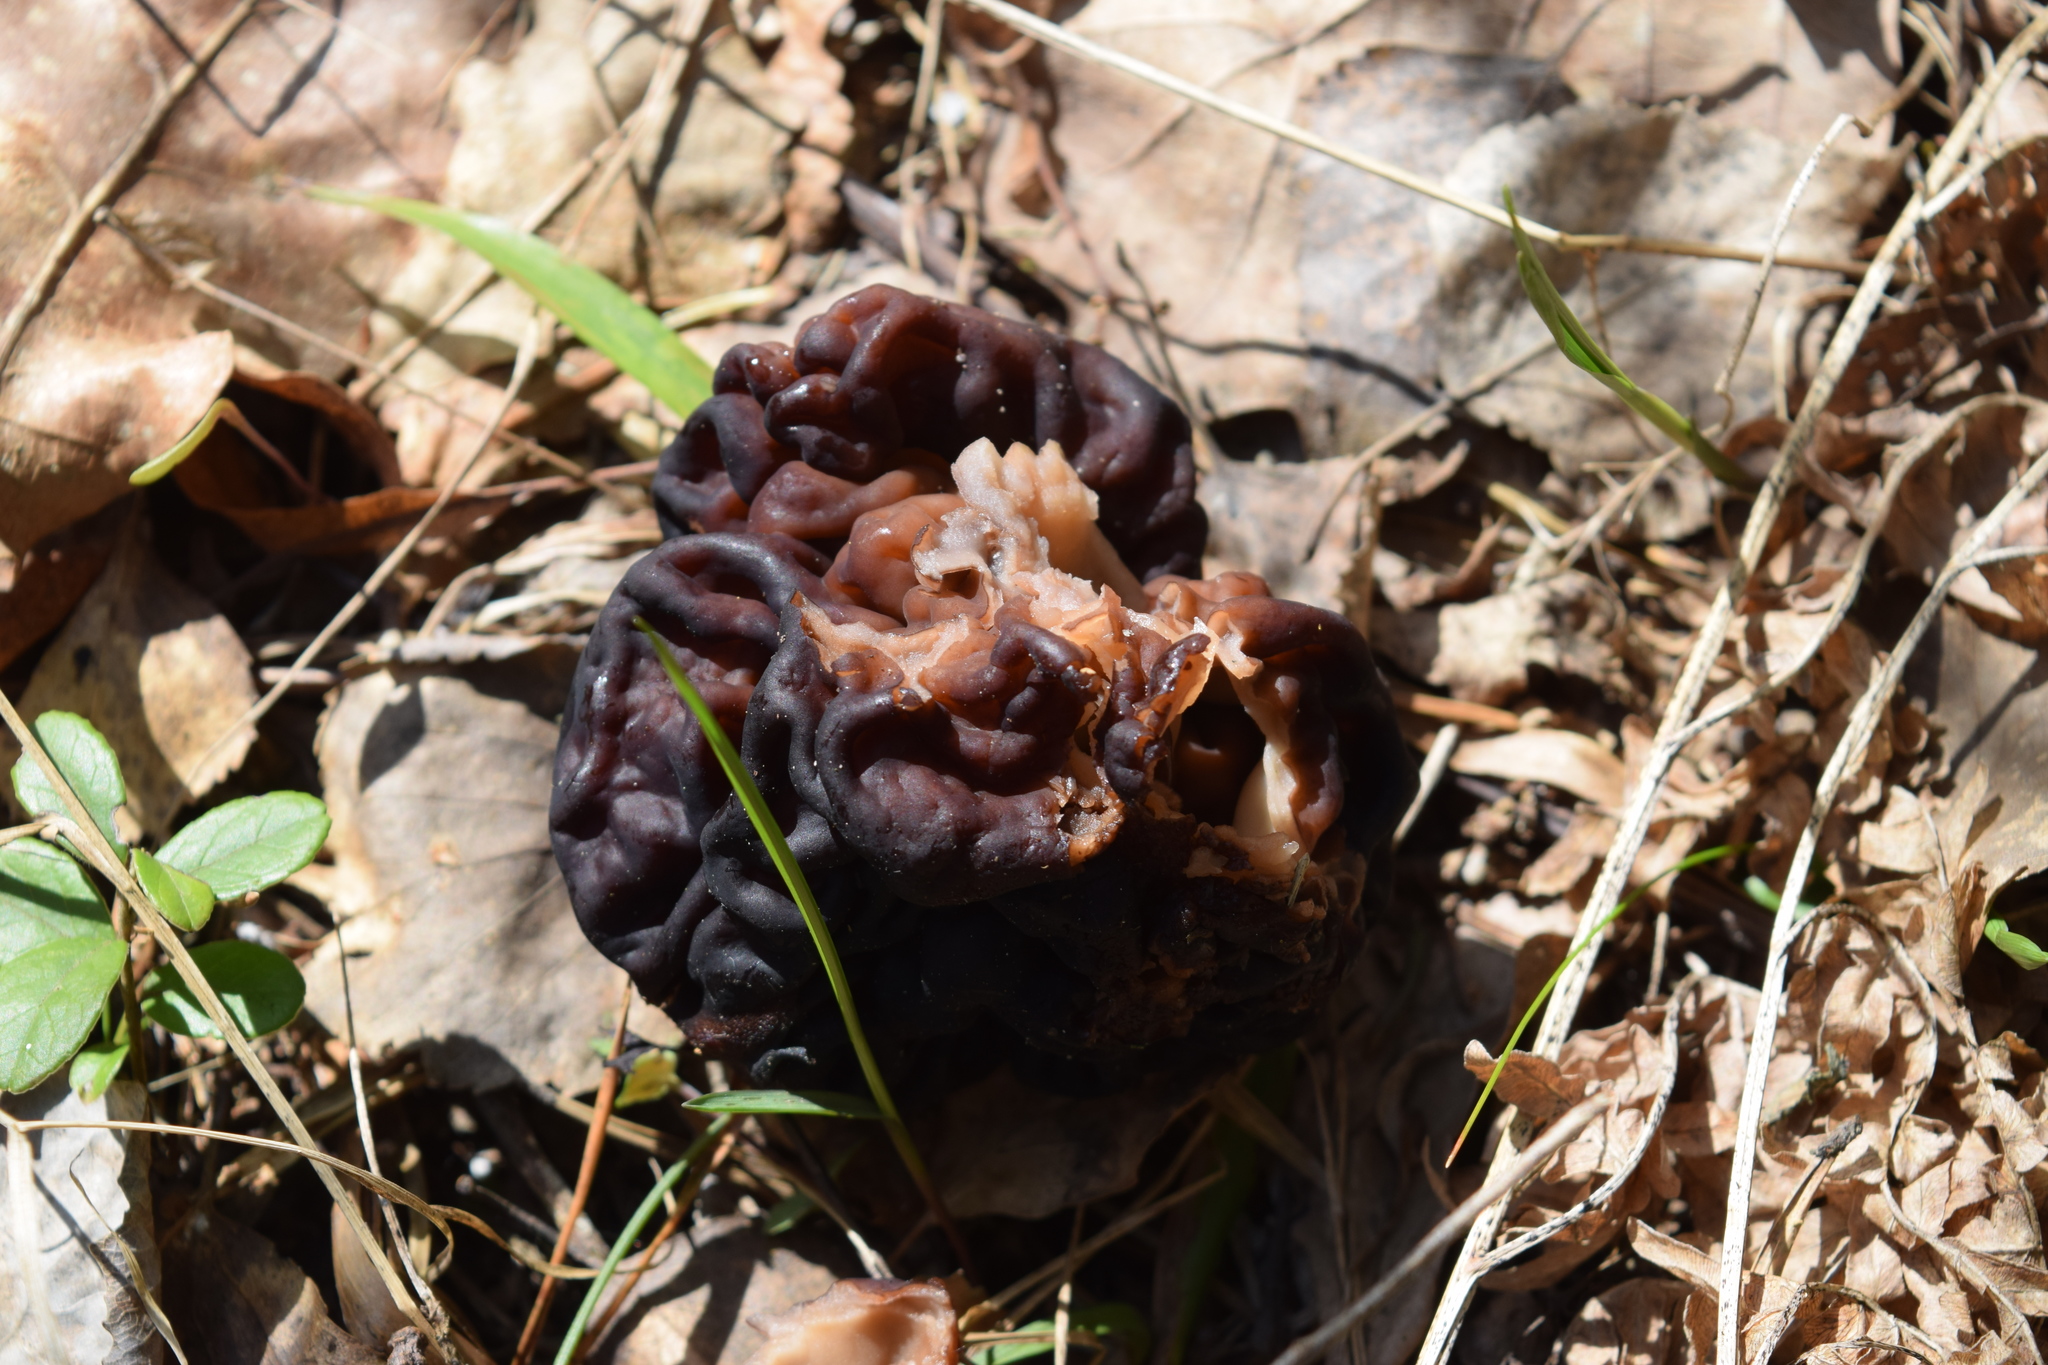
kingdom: Fungi
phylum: Ascomycota
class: Pezizomycetes
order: Pezizales
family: Discinaceae
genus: Gyromitra
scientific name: Gyromitra esculenta
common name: False morel
